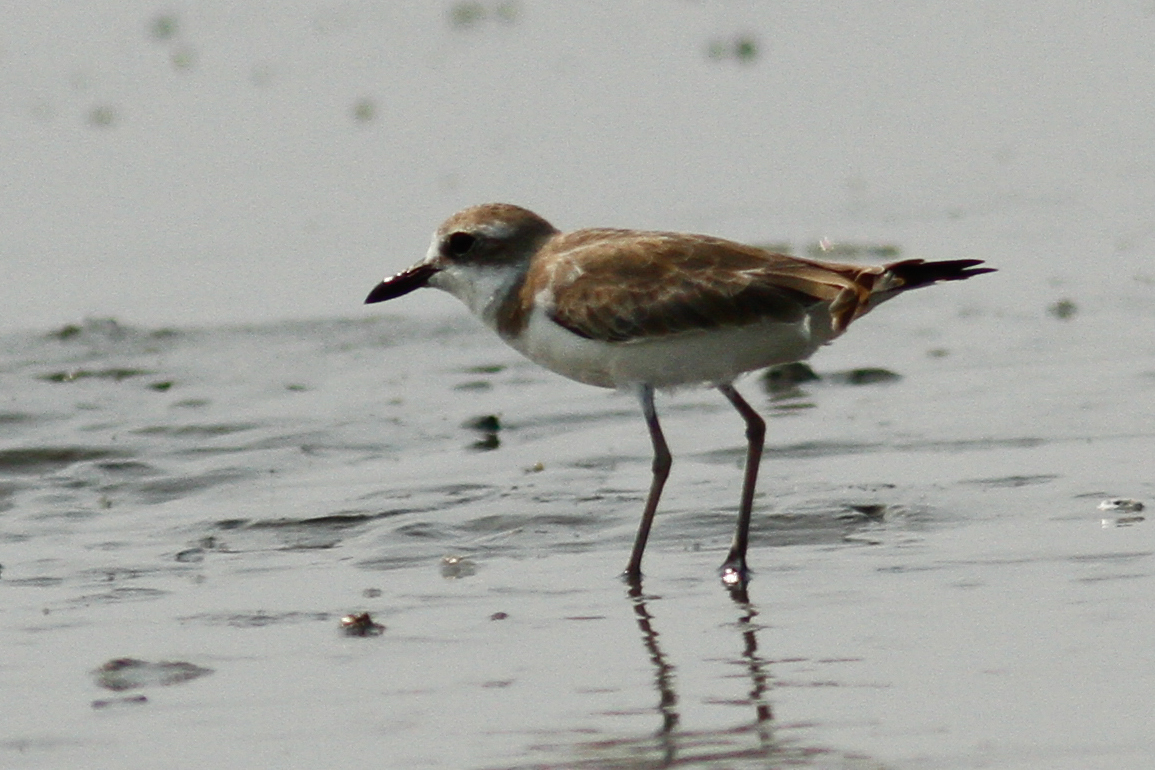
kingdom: Animalia
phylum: Chordata
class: Aves
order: Charadriiformes
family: Charadriidae
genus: Charadrius
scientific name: Charadrius leschenaultii
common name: Greater sand plover
